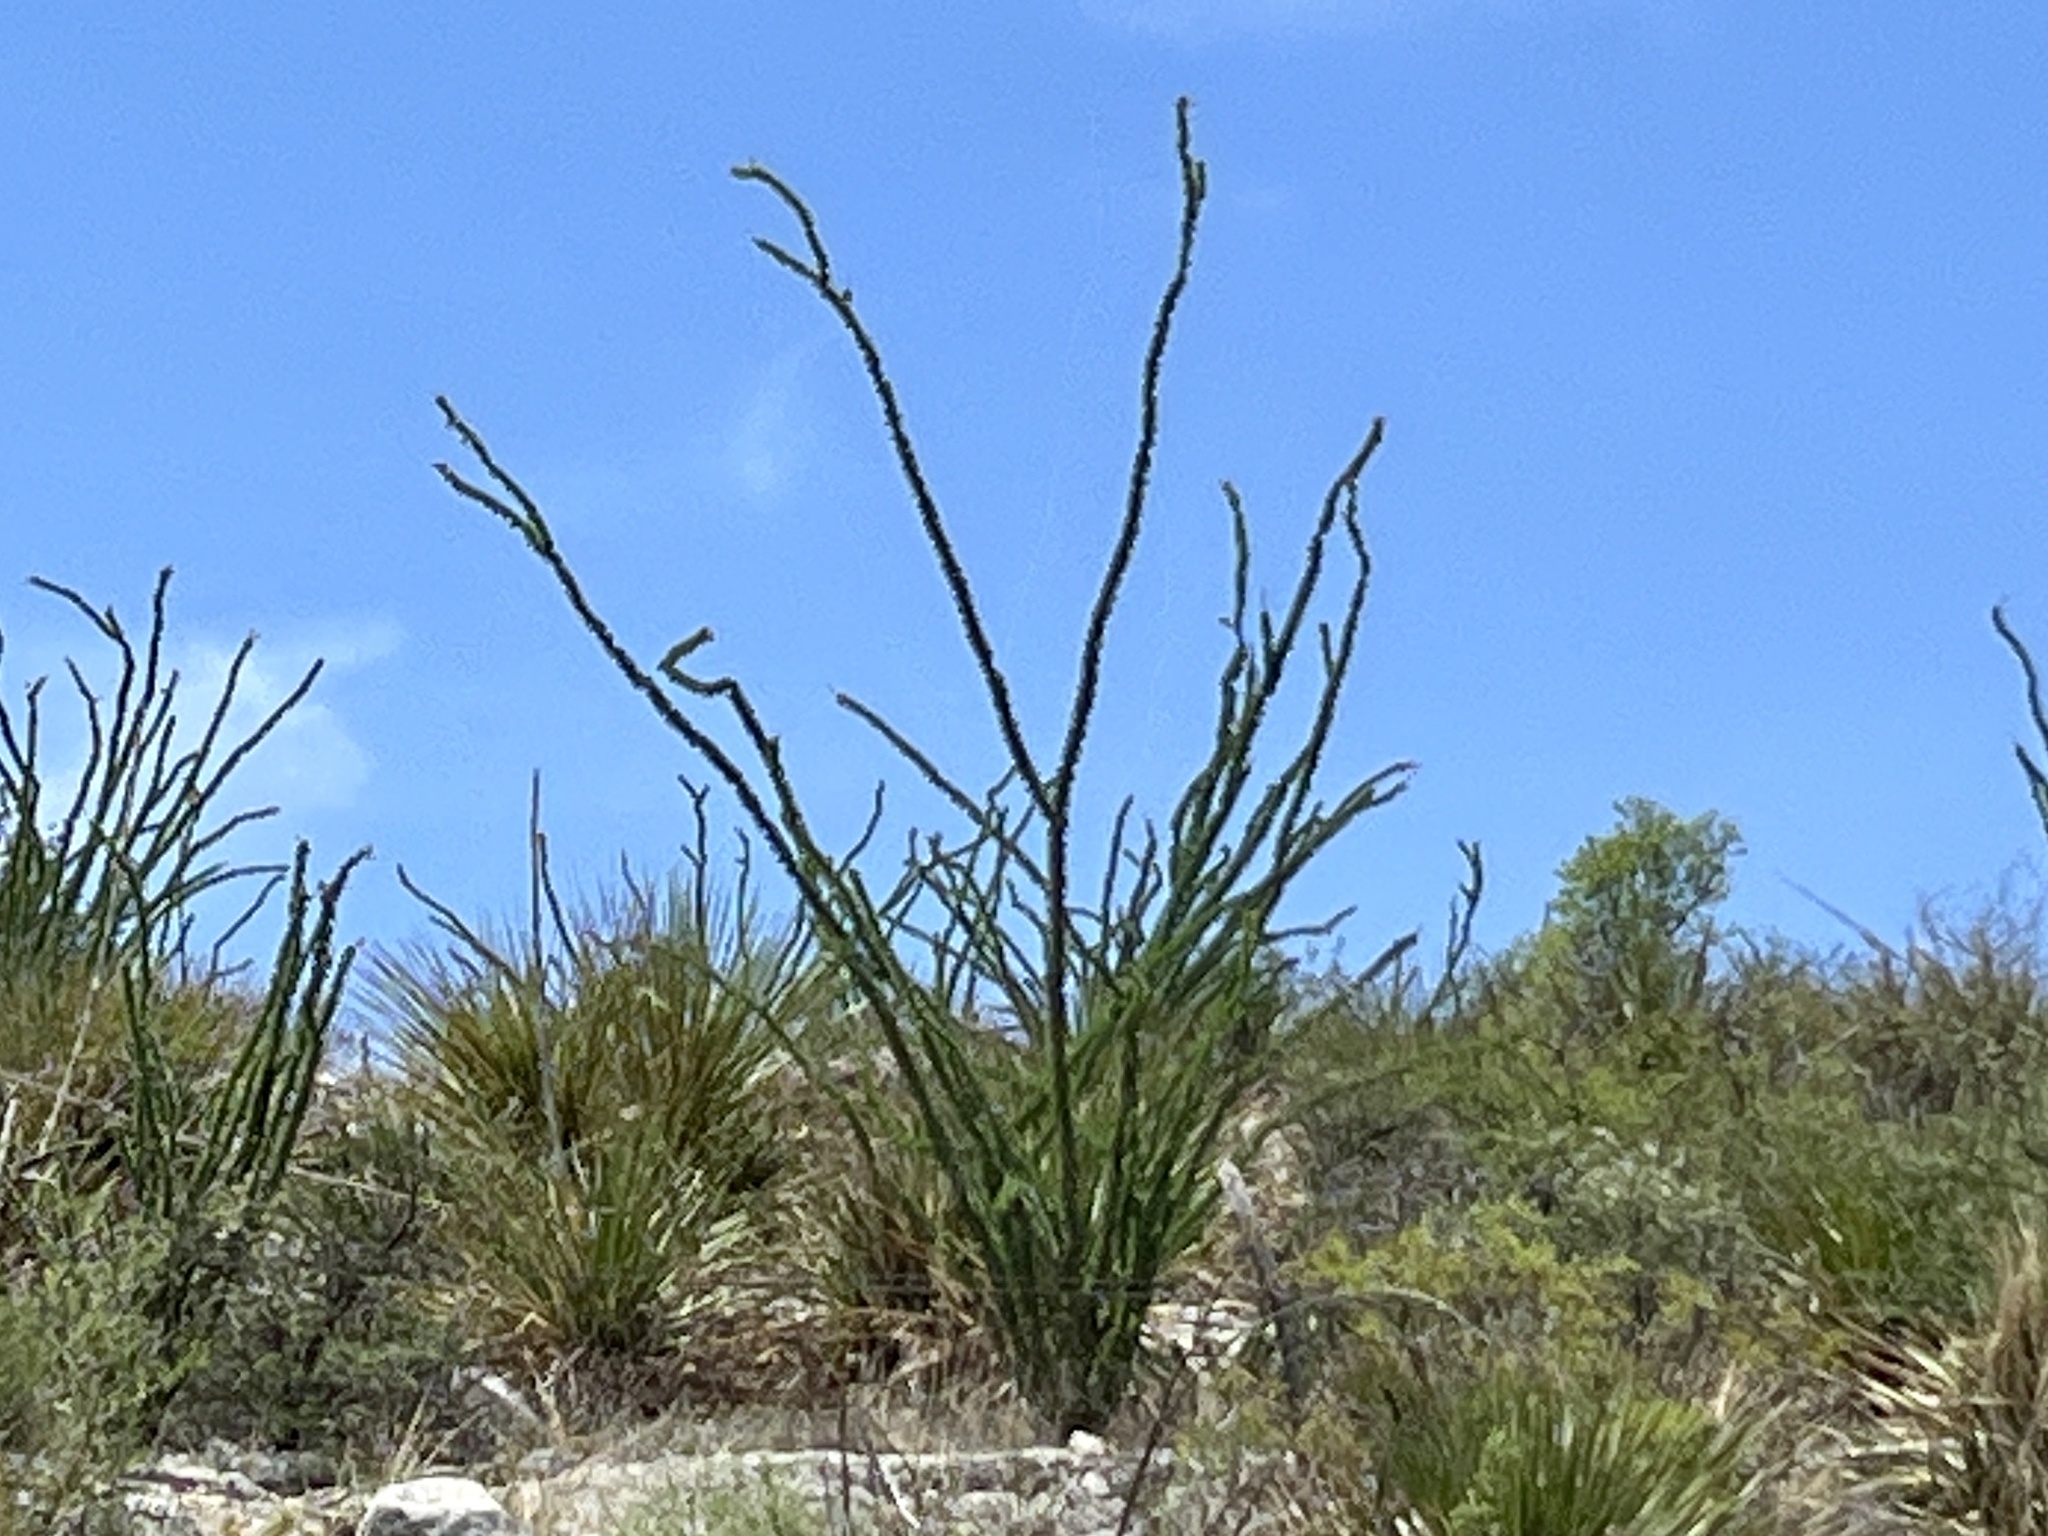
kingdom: Plantae
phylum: Tracheophyta
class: Magnoliopsida
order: Ericales
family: Fouquieriaceae
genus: Fouquieria
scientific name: Fouquieria splendens
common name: Vine-cactus
